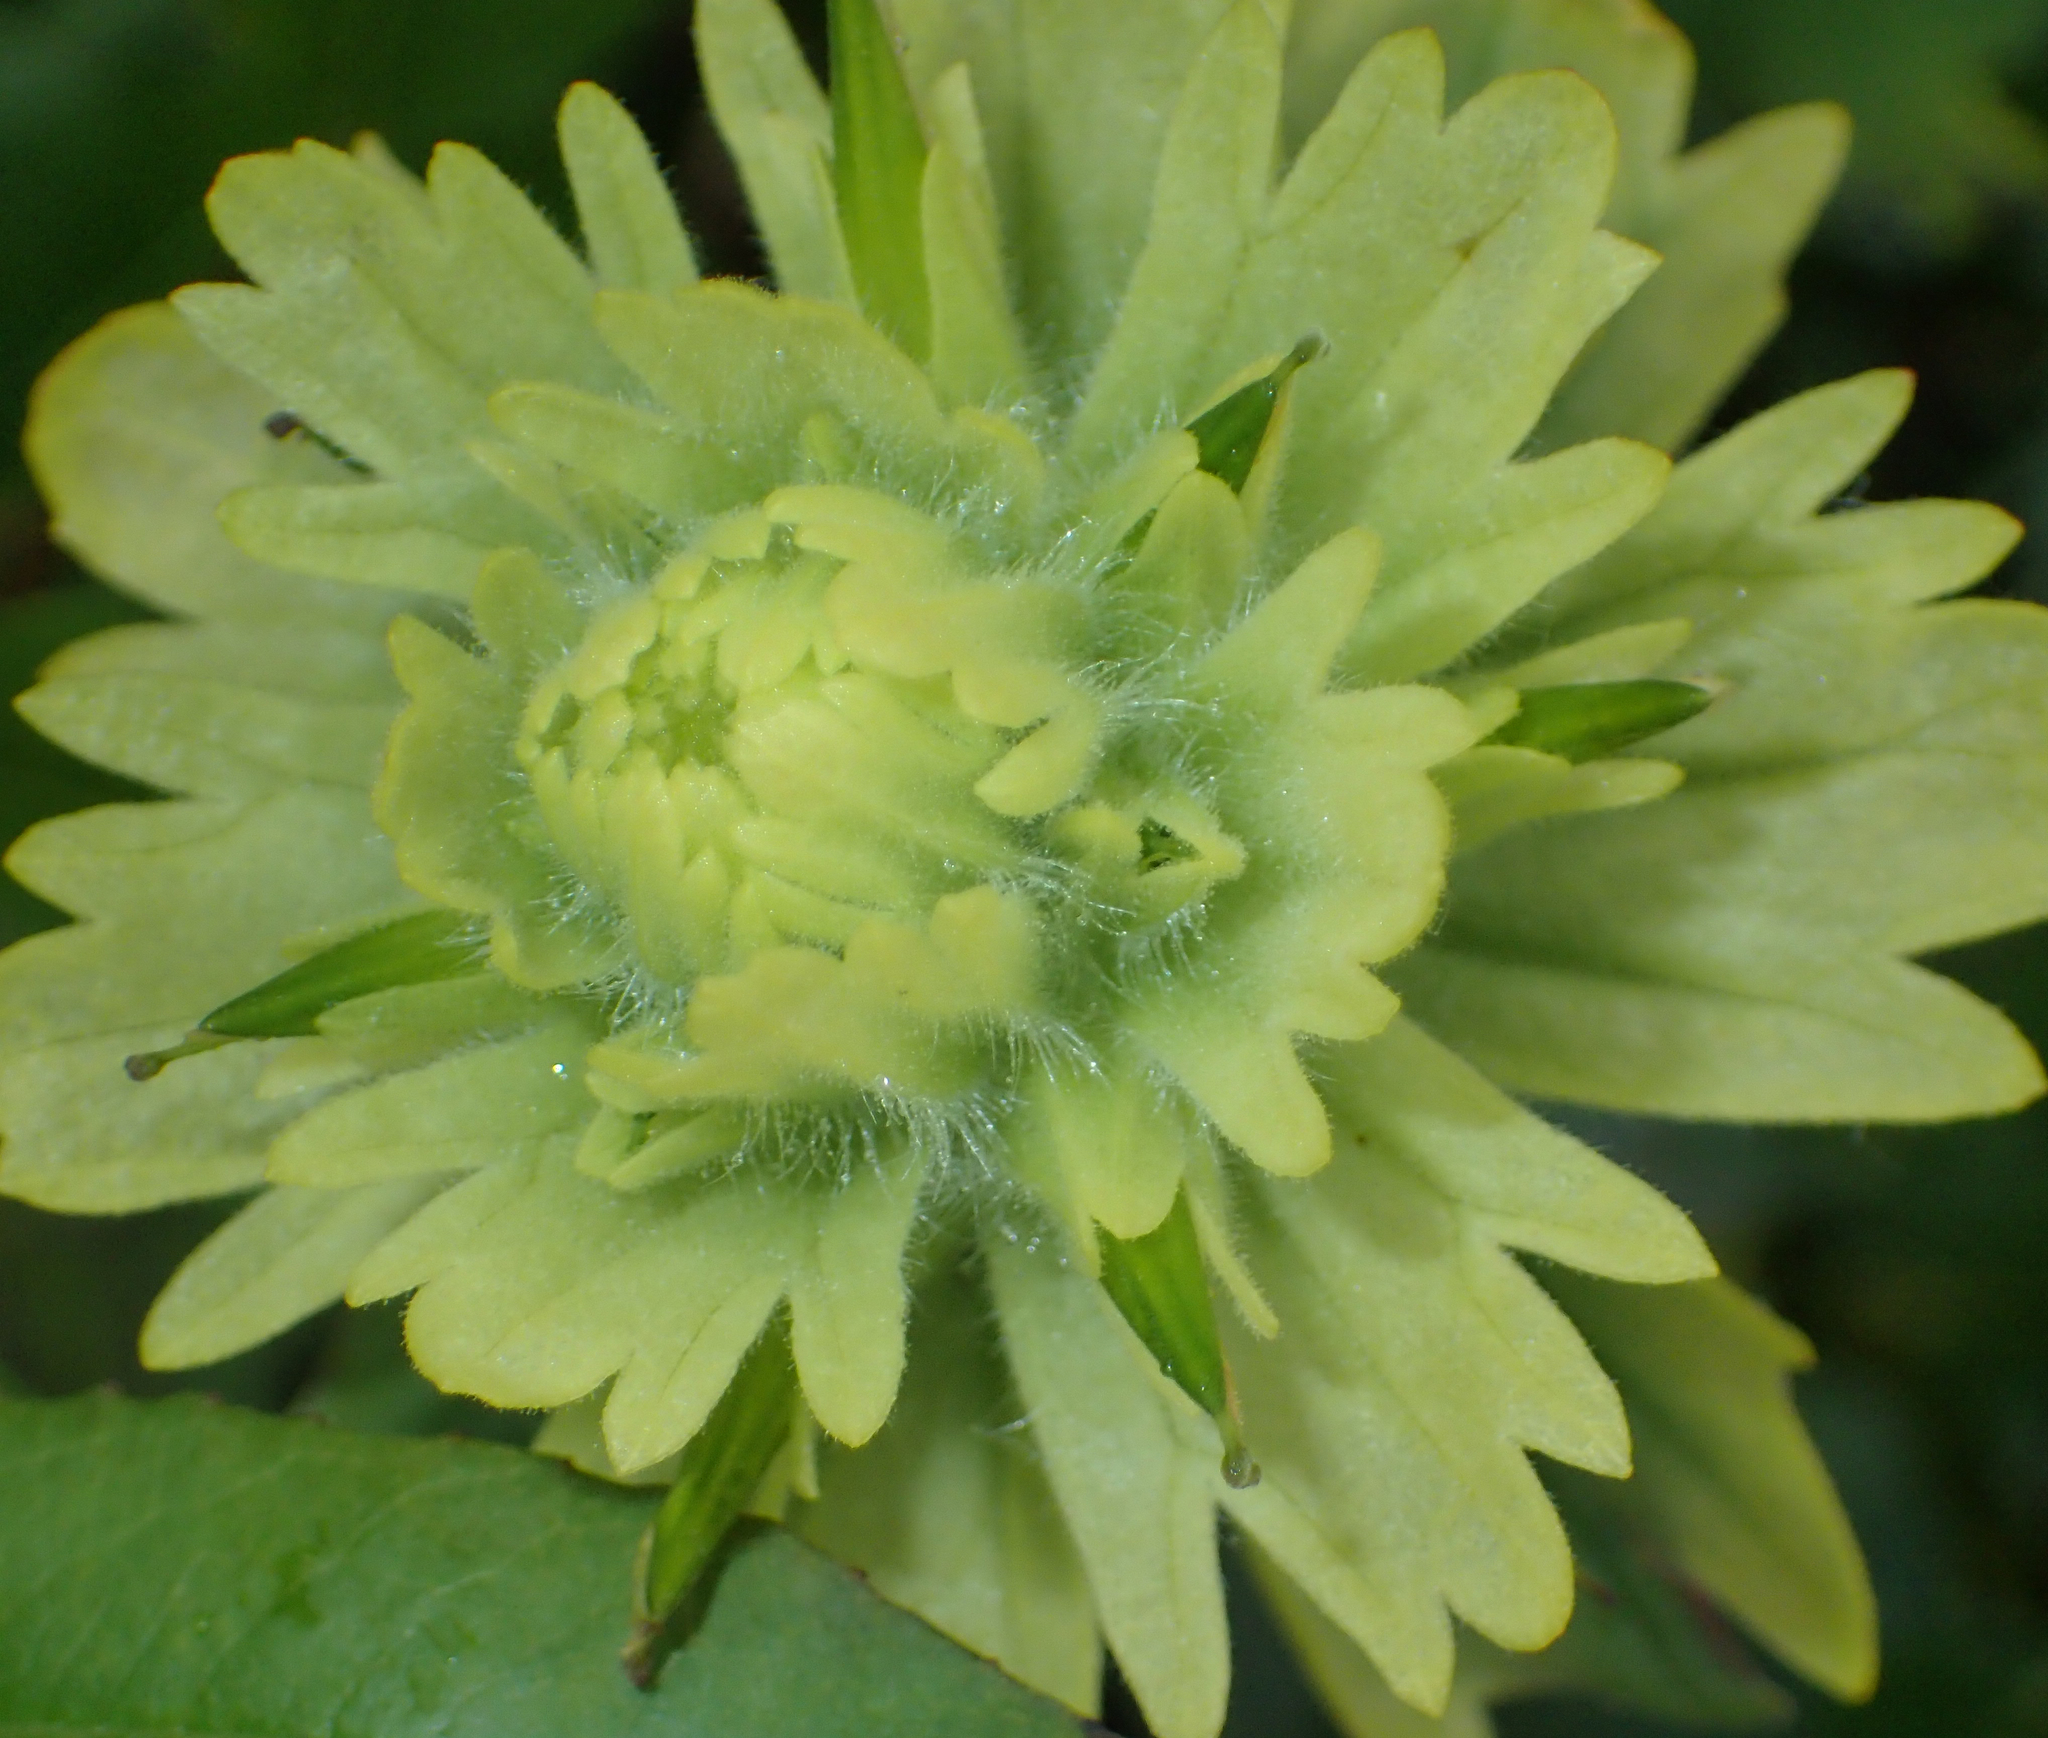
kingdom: Plantae
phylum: Tracheophyta
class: Magnoliopsida
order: Lamiales
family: Orobanchaceae
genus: Castilleja
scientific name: Castilleja unalaschcensis
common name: Unalaska paintbrush
